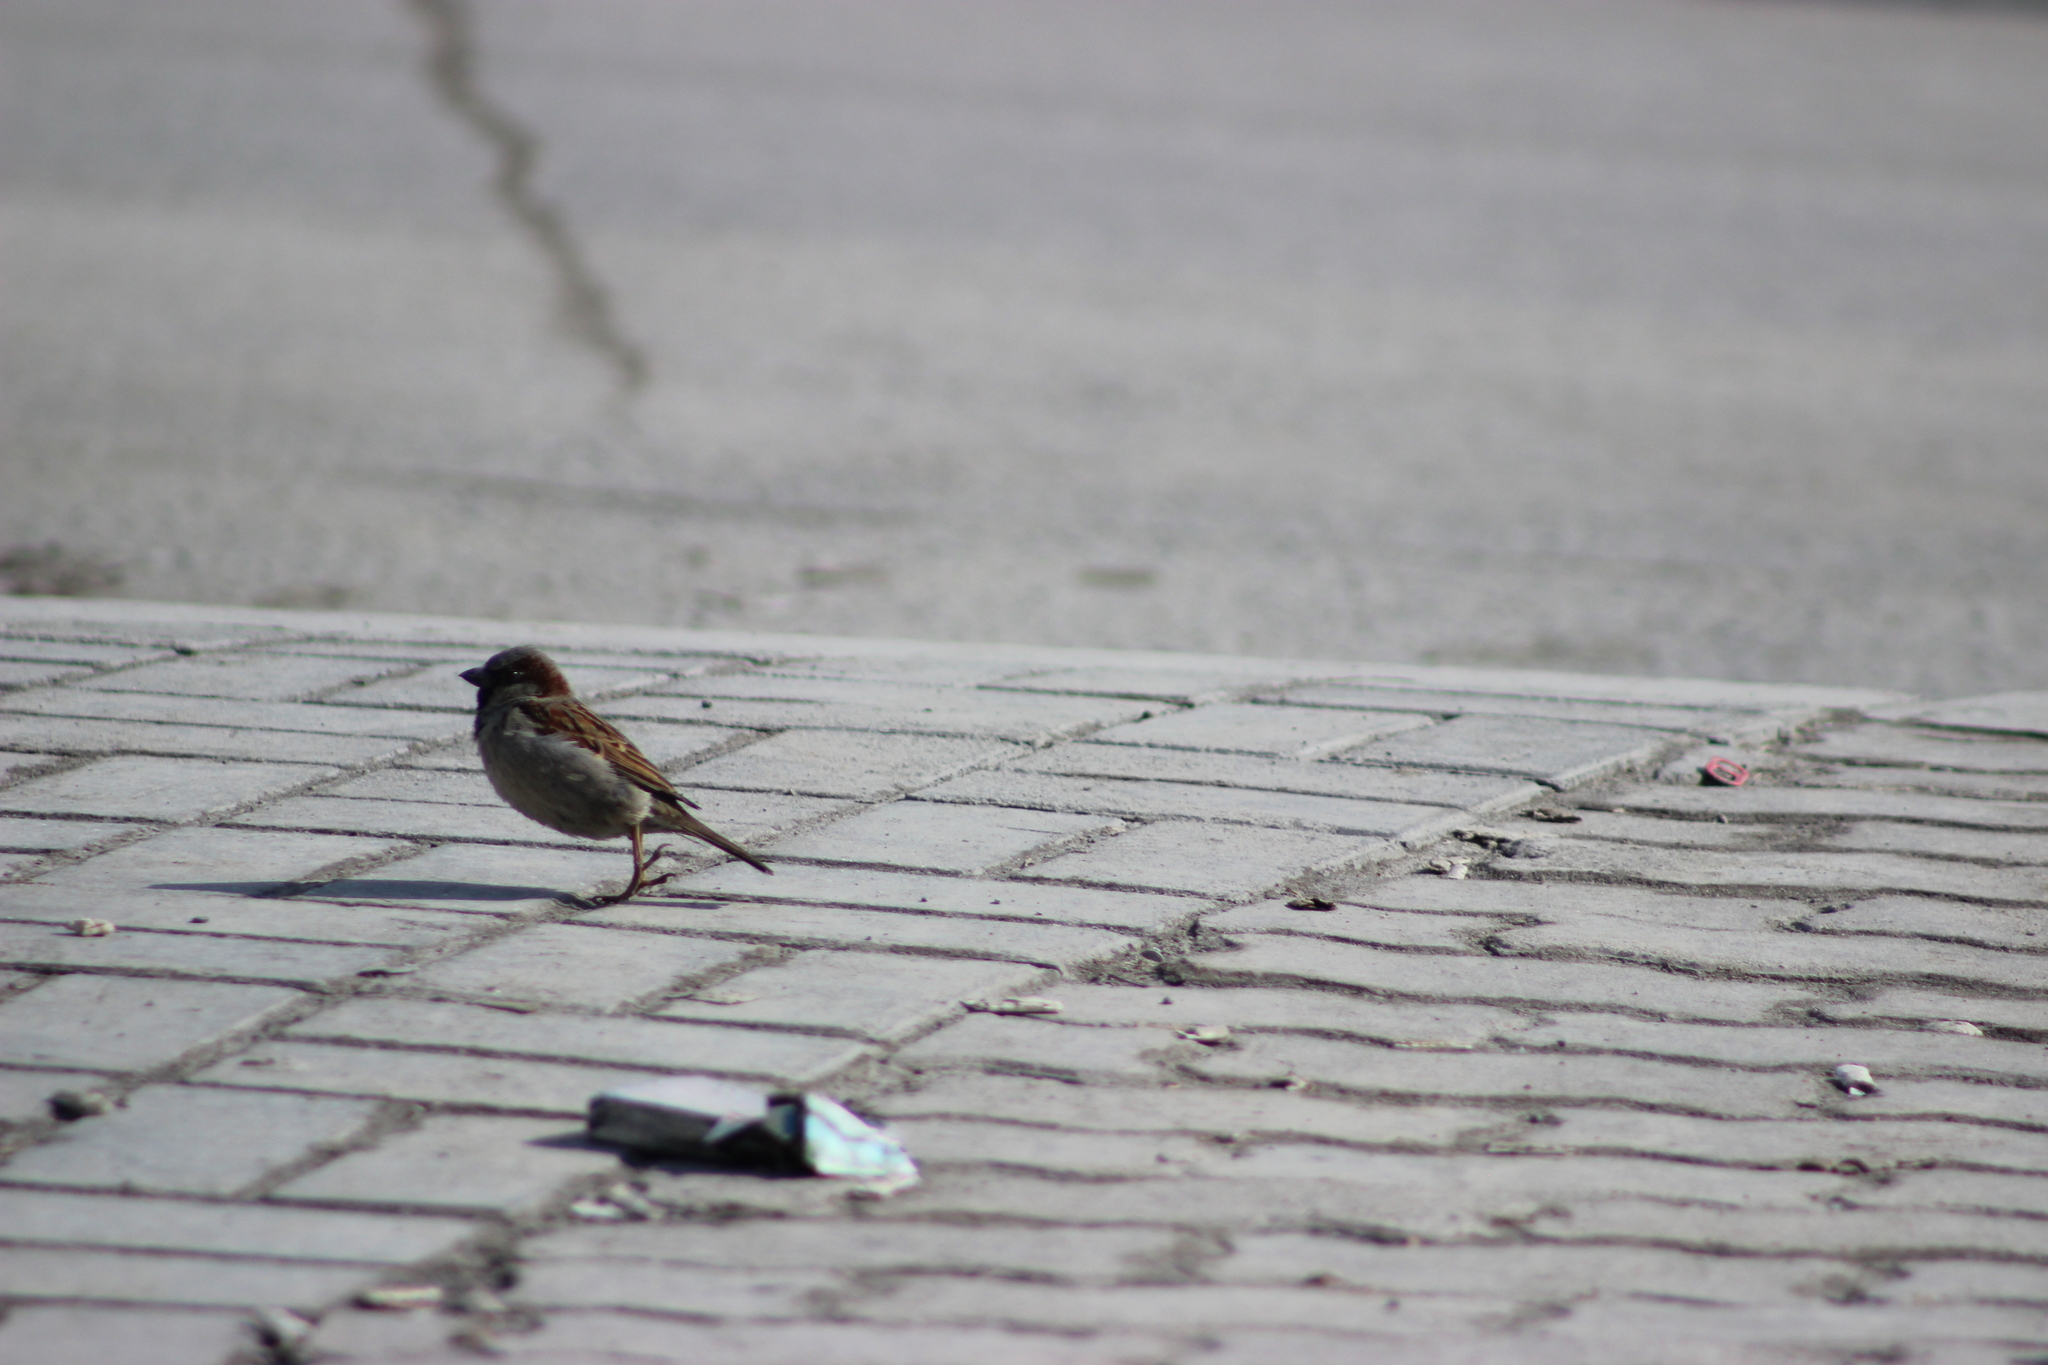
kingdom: Animalia
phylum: Chordata
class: Aves
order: Passeriformes
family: Passeridae
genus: Passer
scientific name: Passer domesticus
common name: House sparrow
